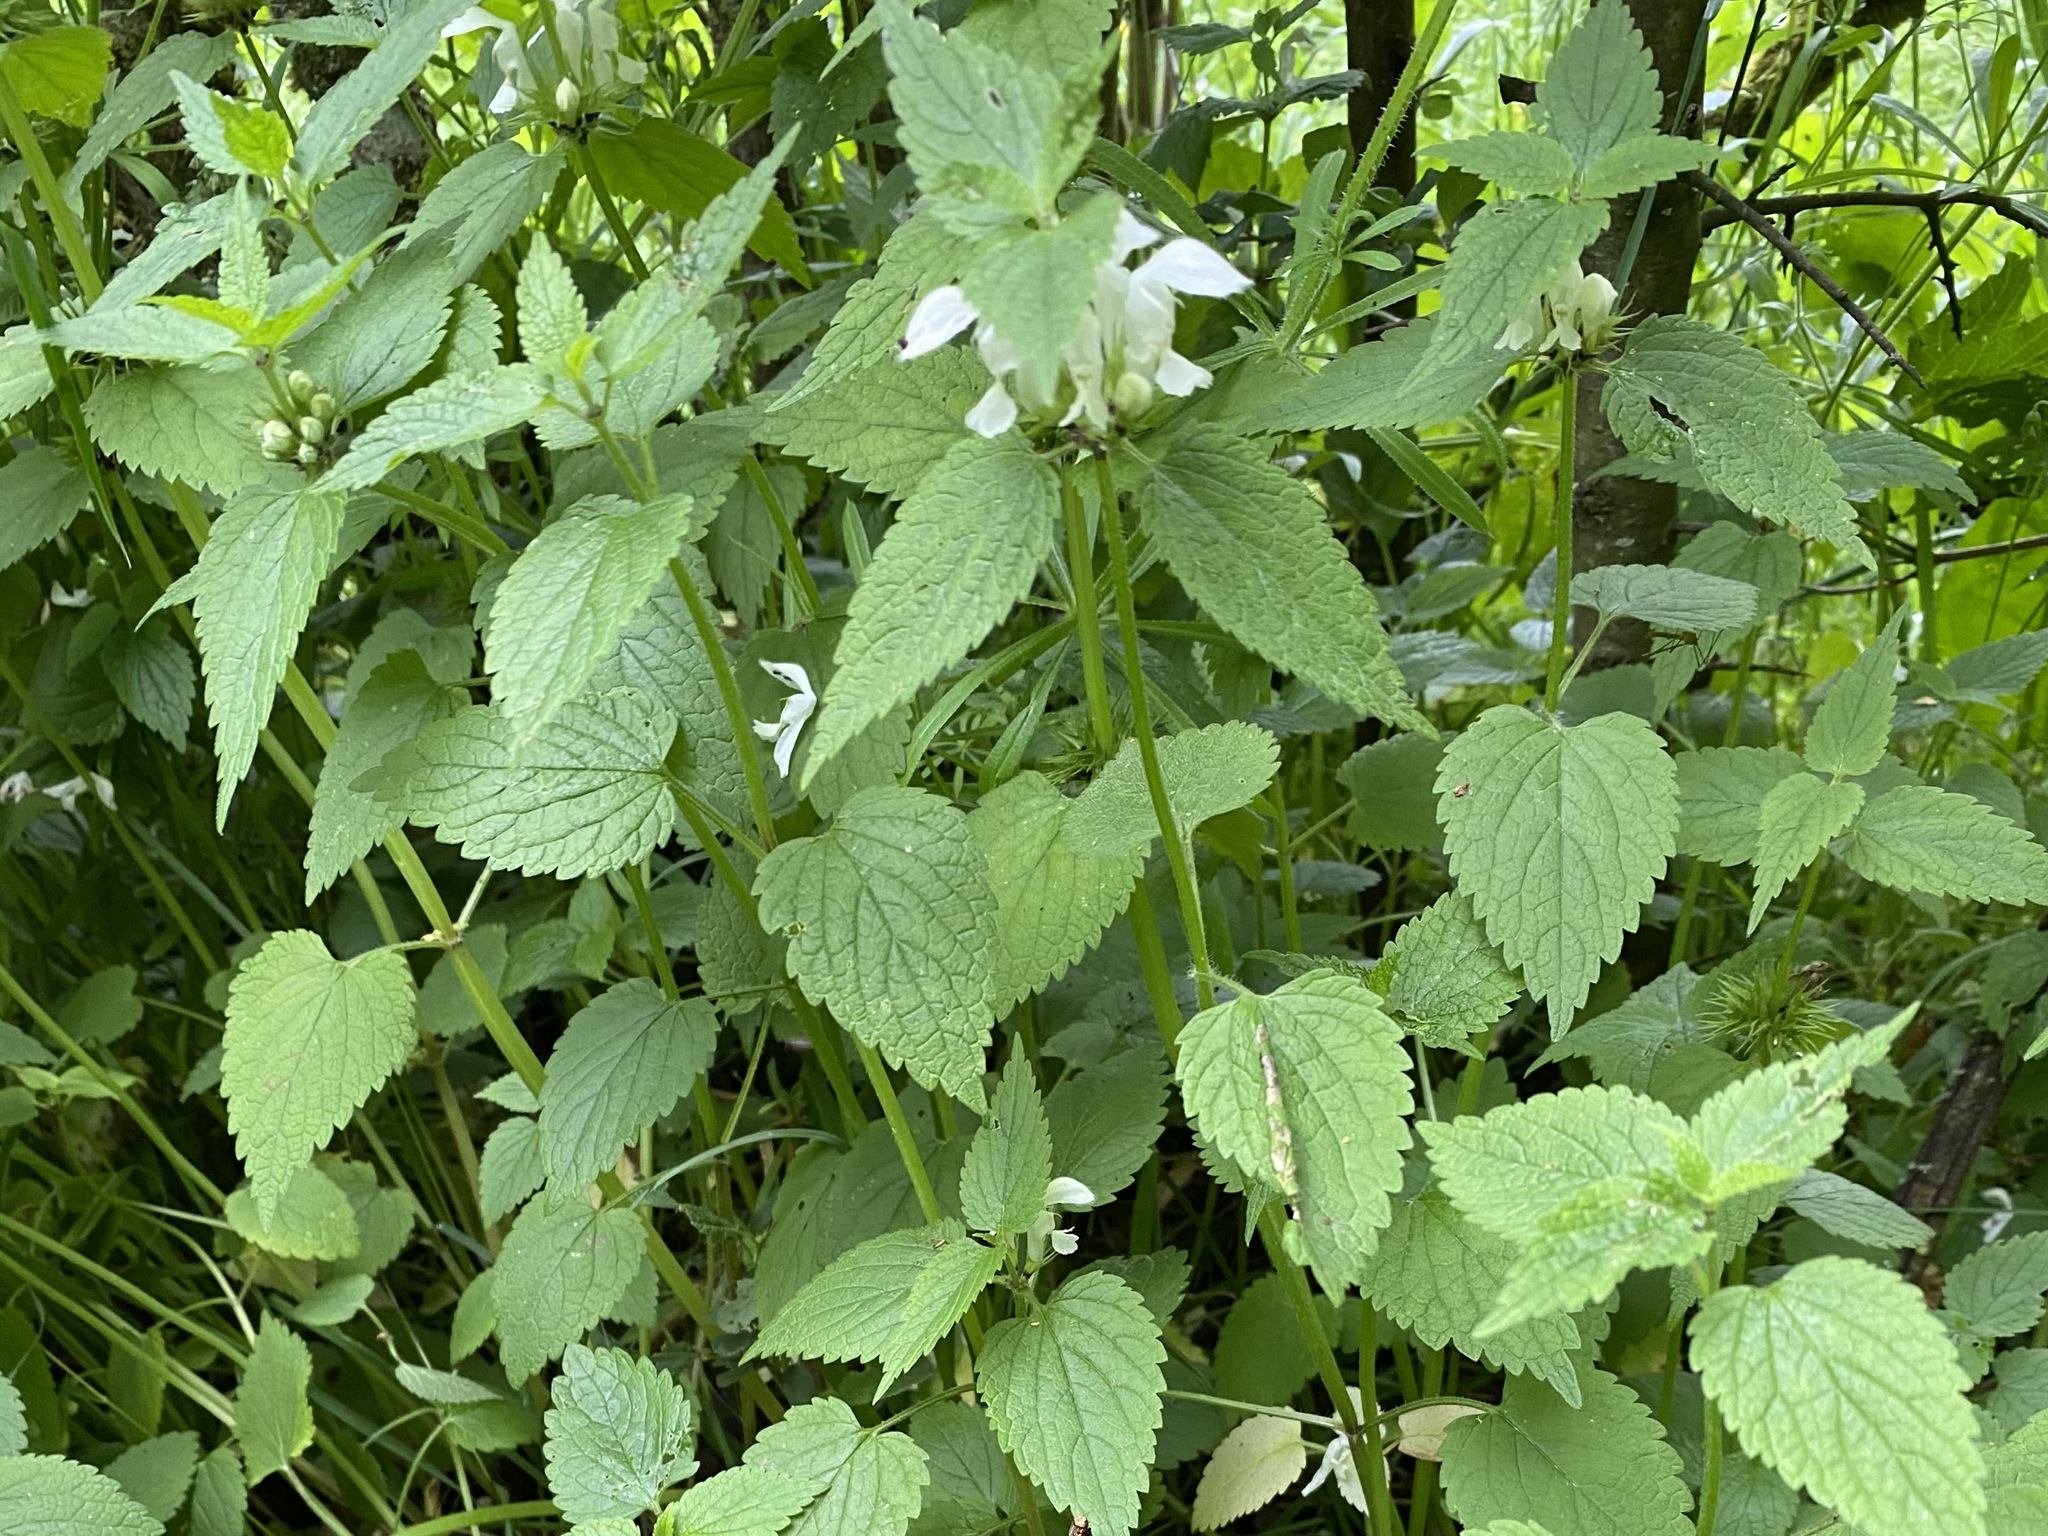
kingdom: Plantae
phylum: Tracheophyta
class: Magnoliopsida
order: Lamiales
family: Lamiaceae
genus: Lamium
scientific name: Lamium album
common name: White dead-nettle
